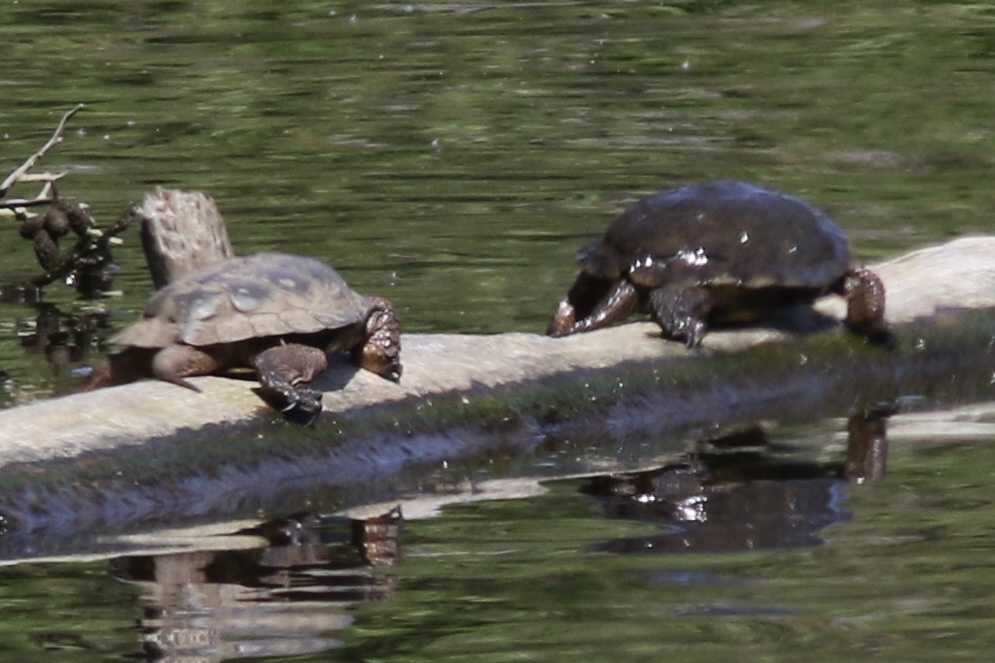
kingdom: Animalia
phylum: Chordata
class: Testudines
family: Emydidae
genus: Actinemys
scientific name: Actinemys marmorata
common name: Western pond turtle
